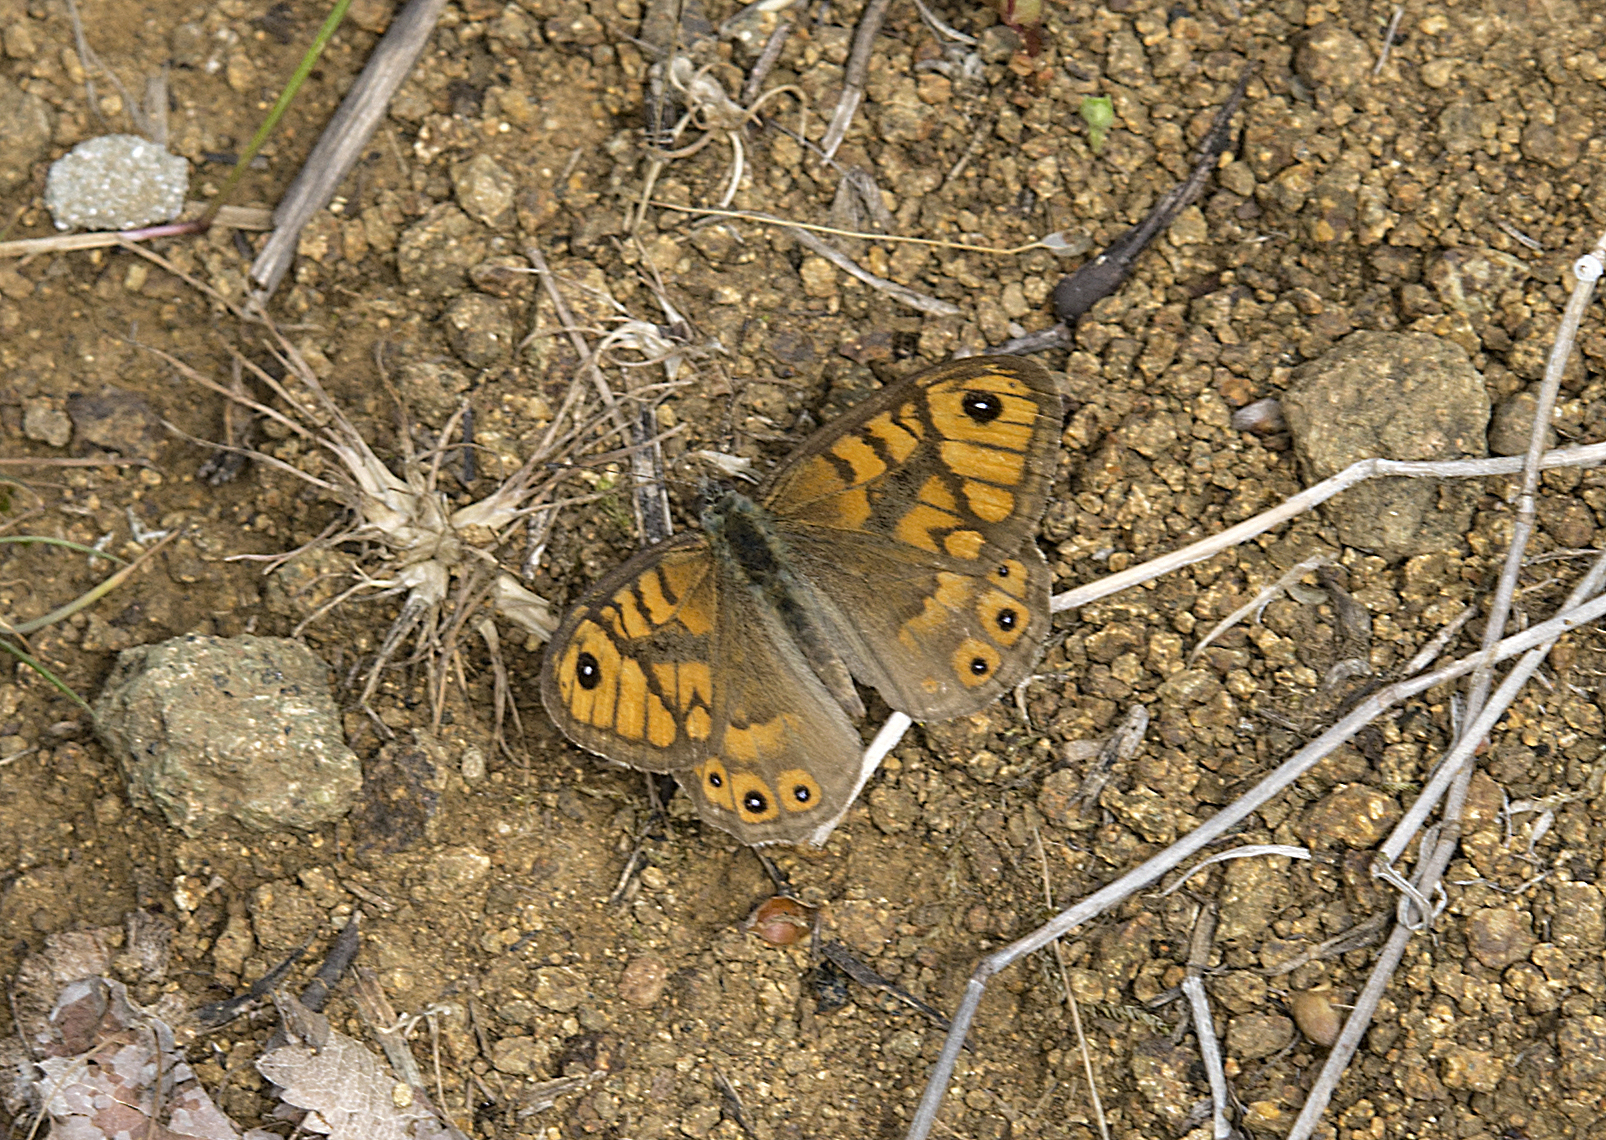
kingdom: Animalia
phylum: Arthropoda
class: Insecta
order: Lepidoptera
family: Nymphalidae
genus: Pararge
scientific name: Pararge Lasiommata megera
